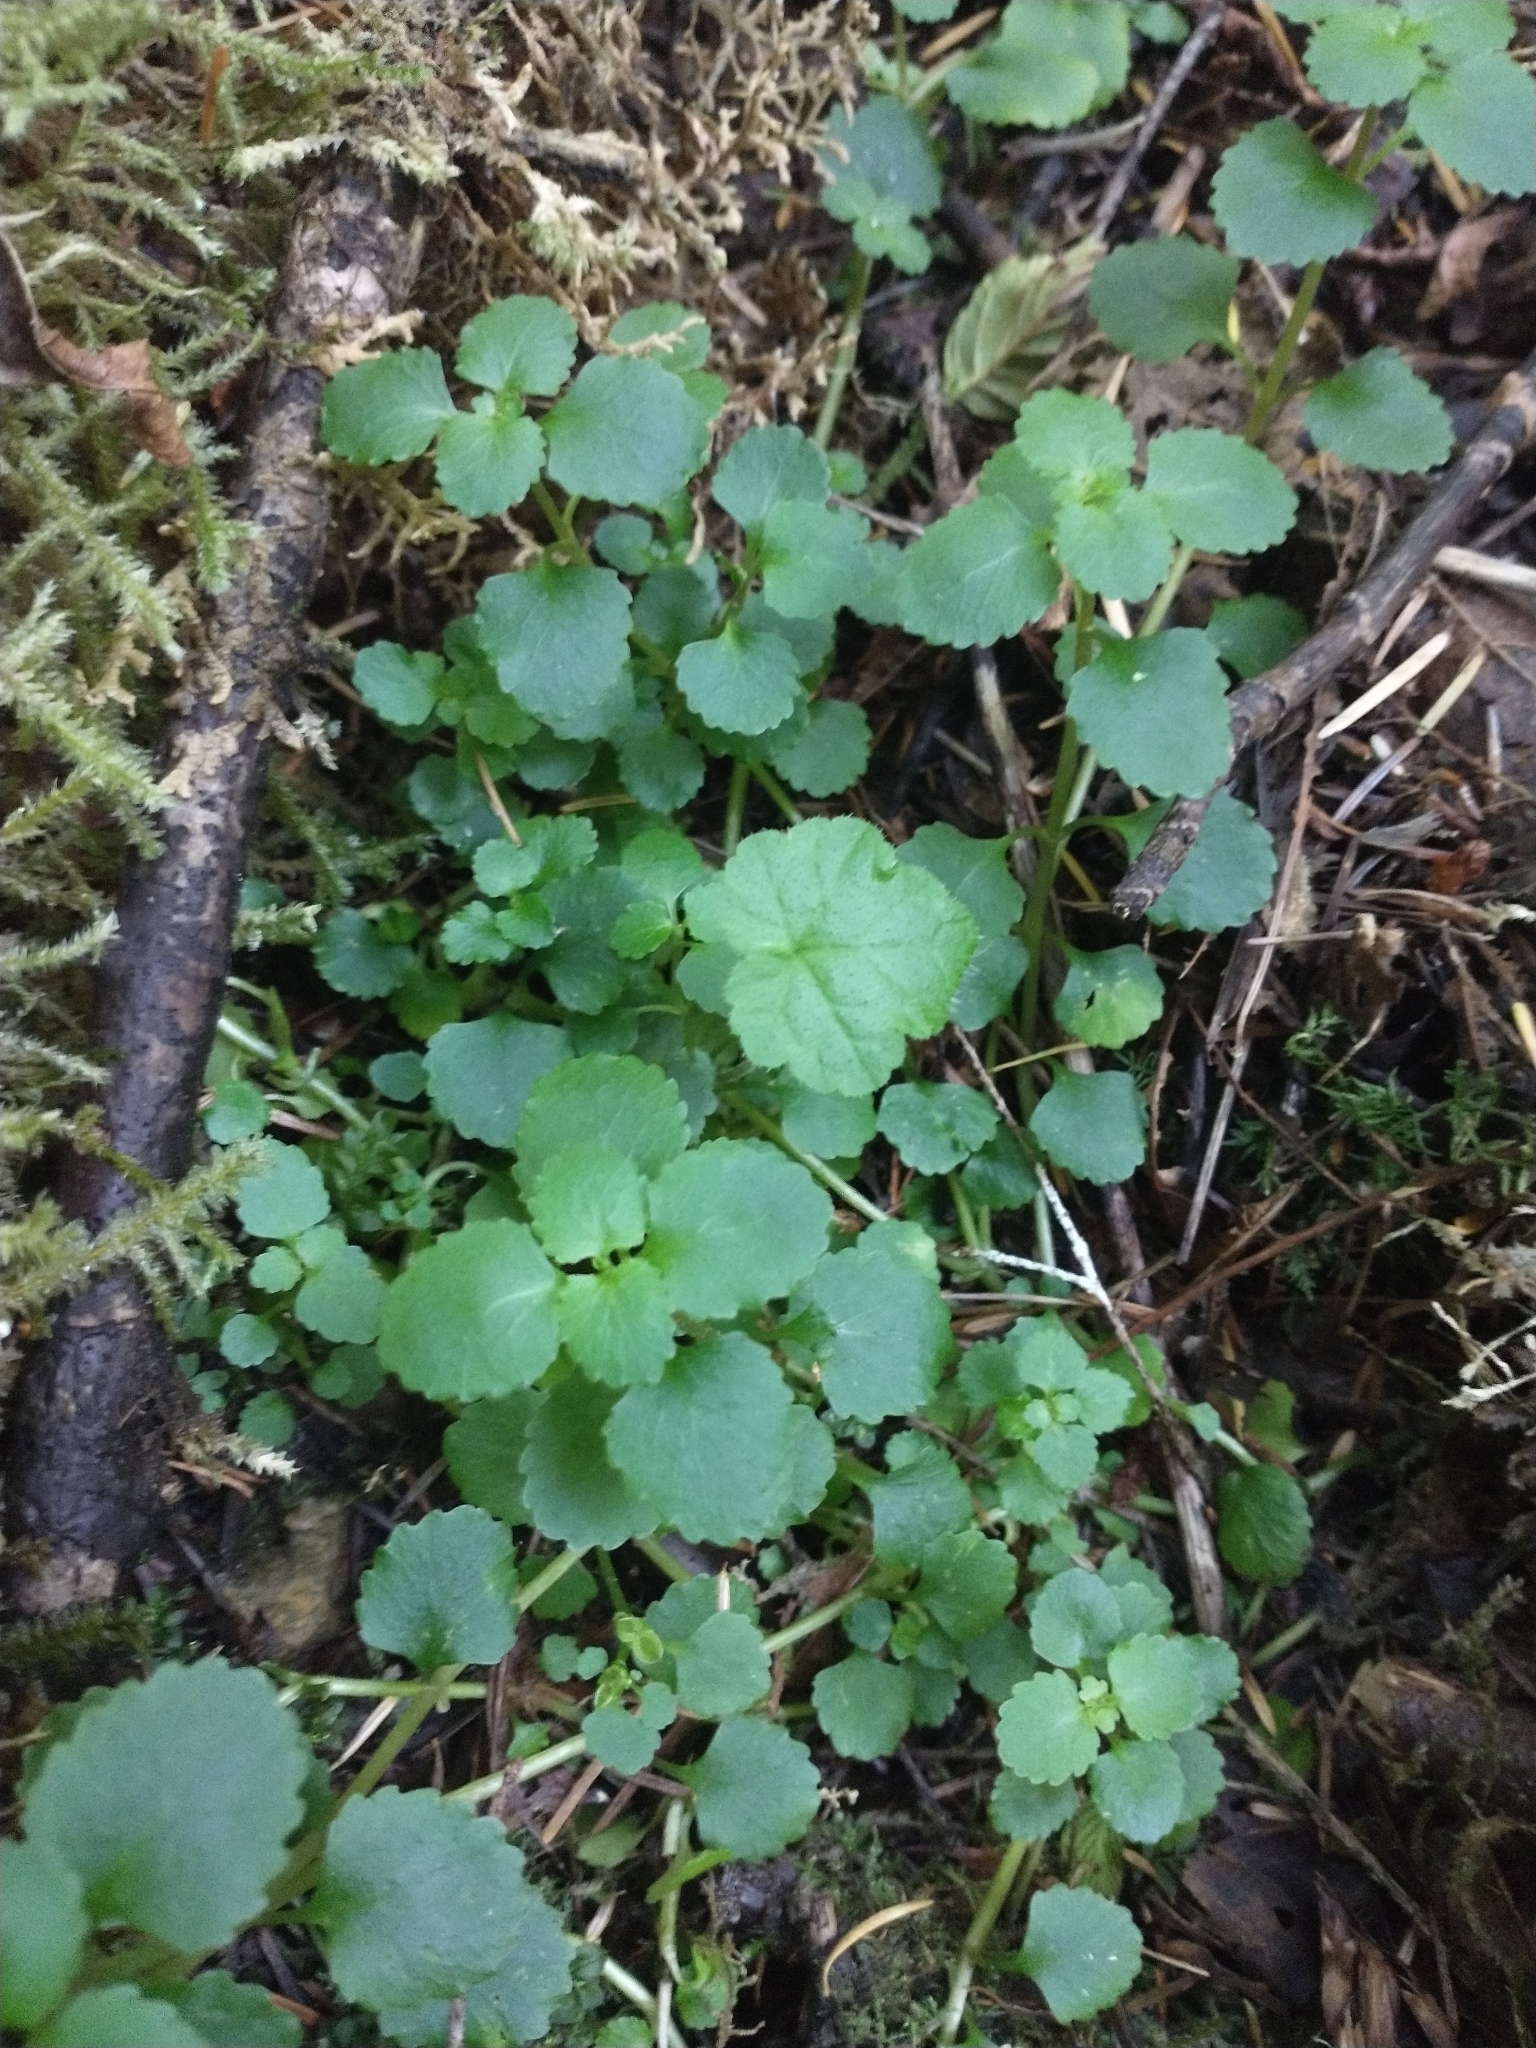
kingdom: Plantae
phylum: Tracheophyta
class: Magnoliopsida
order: Saxifragales
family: Saxifragaceae
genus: Chrysosplenium
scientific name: Chrysosplenium glechomifolium
